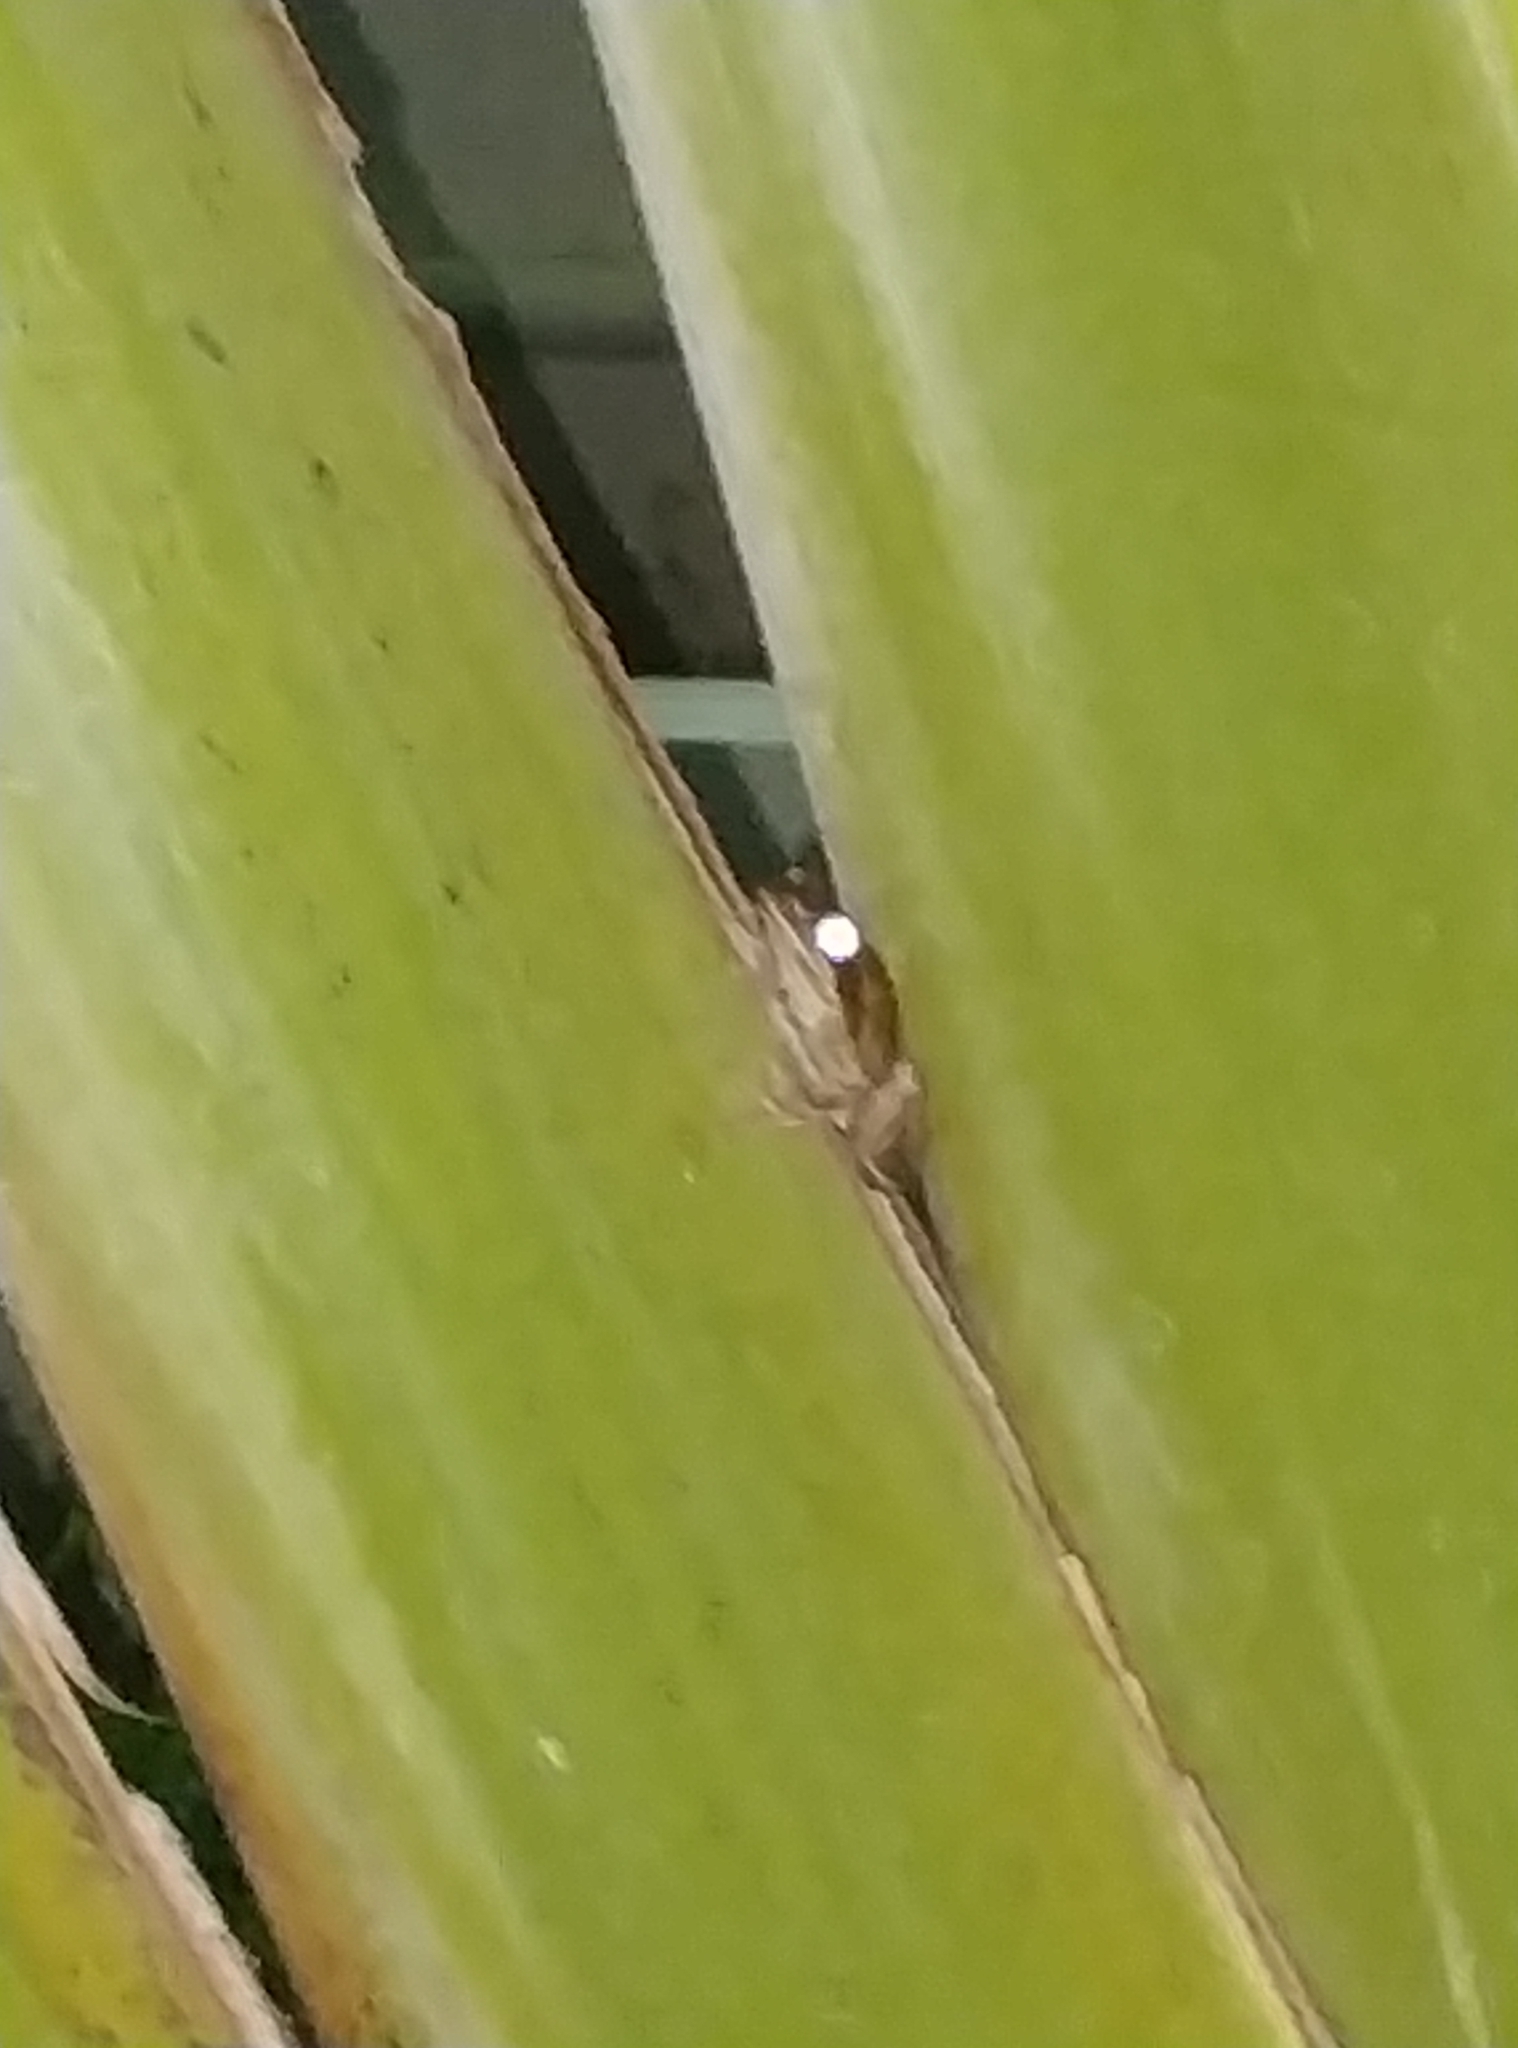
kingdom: Animalia
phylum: Chordata
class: Amphibia
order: Anura
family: Rhacophoridae
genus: Polypedates
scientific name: Polypedates maculatus
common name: Himalayan tree frog
